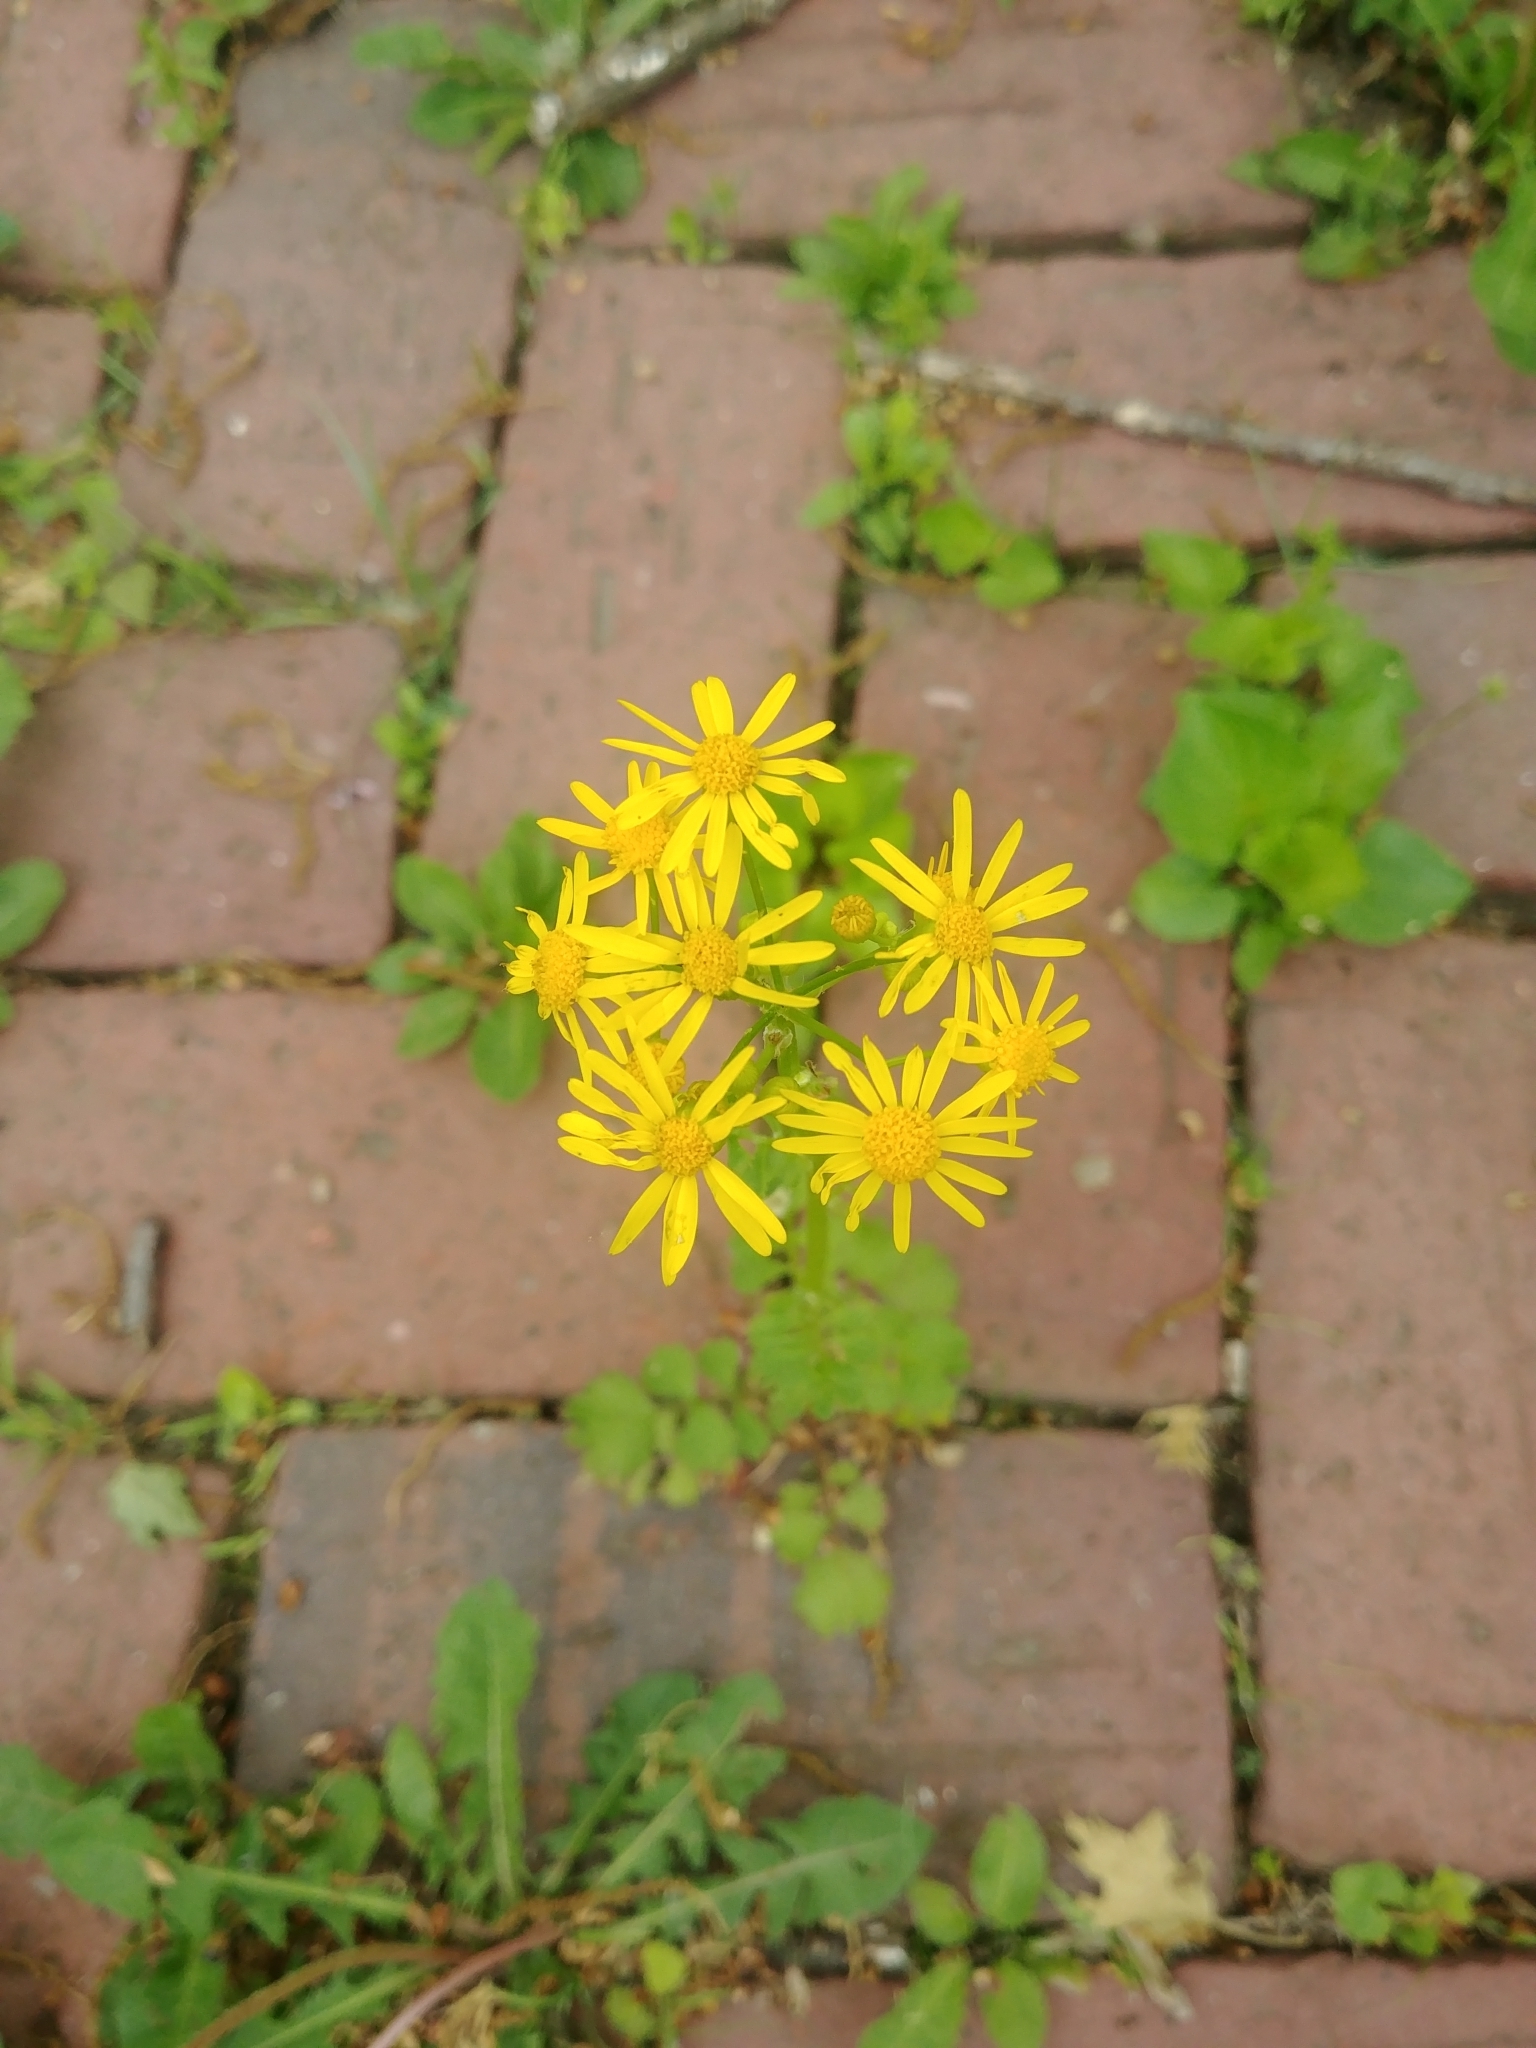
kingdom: Plantae
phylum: Tracheophyta
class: Magnoliopsida
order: Asterales
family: Asteraceae
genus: Packera
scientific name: Packera glabella
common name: Butterweed
